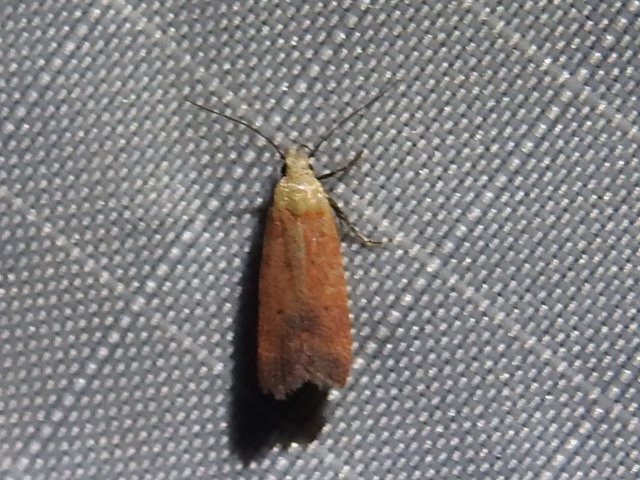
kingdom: Animalia
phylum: Arthropoda
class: Insecta
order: Lepidoptera
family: Gelechiidae
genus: Anacampsis
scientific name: Anacampsis fullonella
